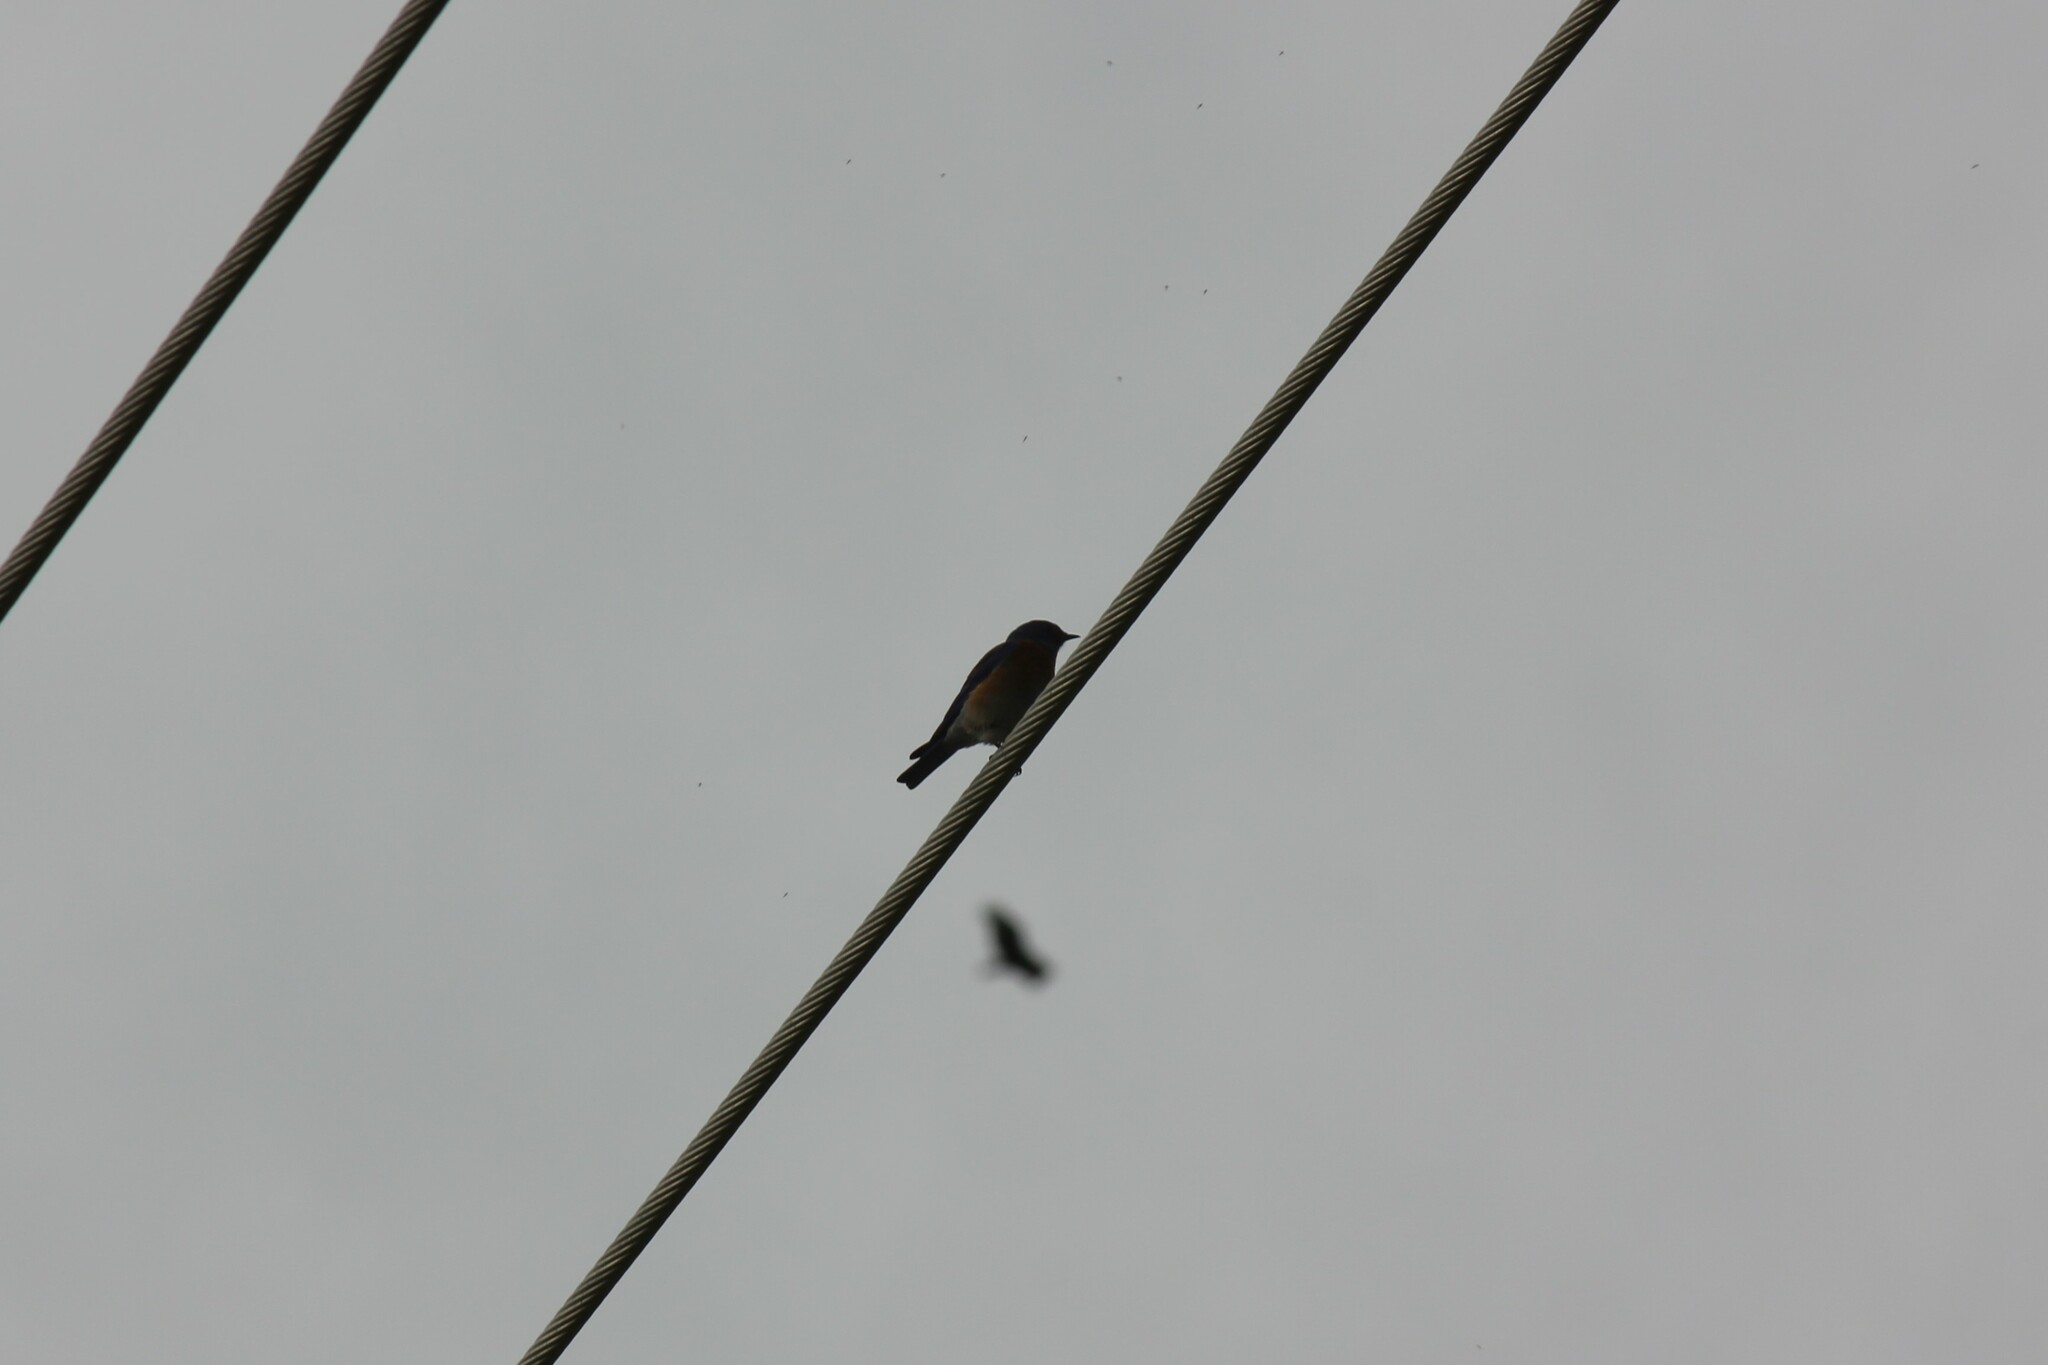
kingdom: Animalia
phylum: Chordata
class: Aves
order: Passeriformes
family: Turdidae
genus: Sialia
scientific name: Sialia mexicana
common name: Western bluebird
